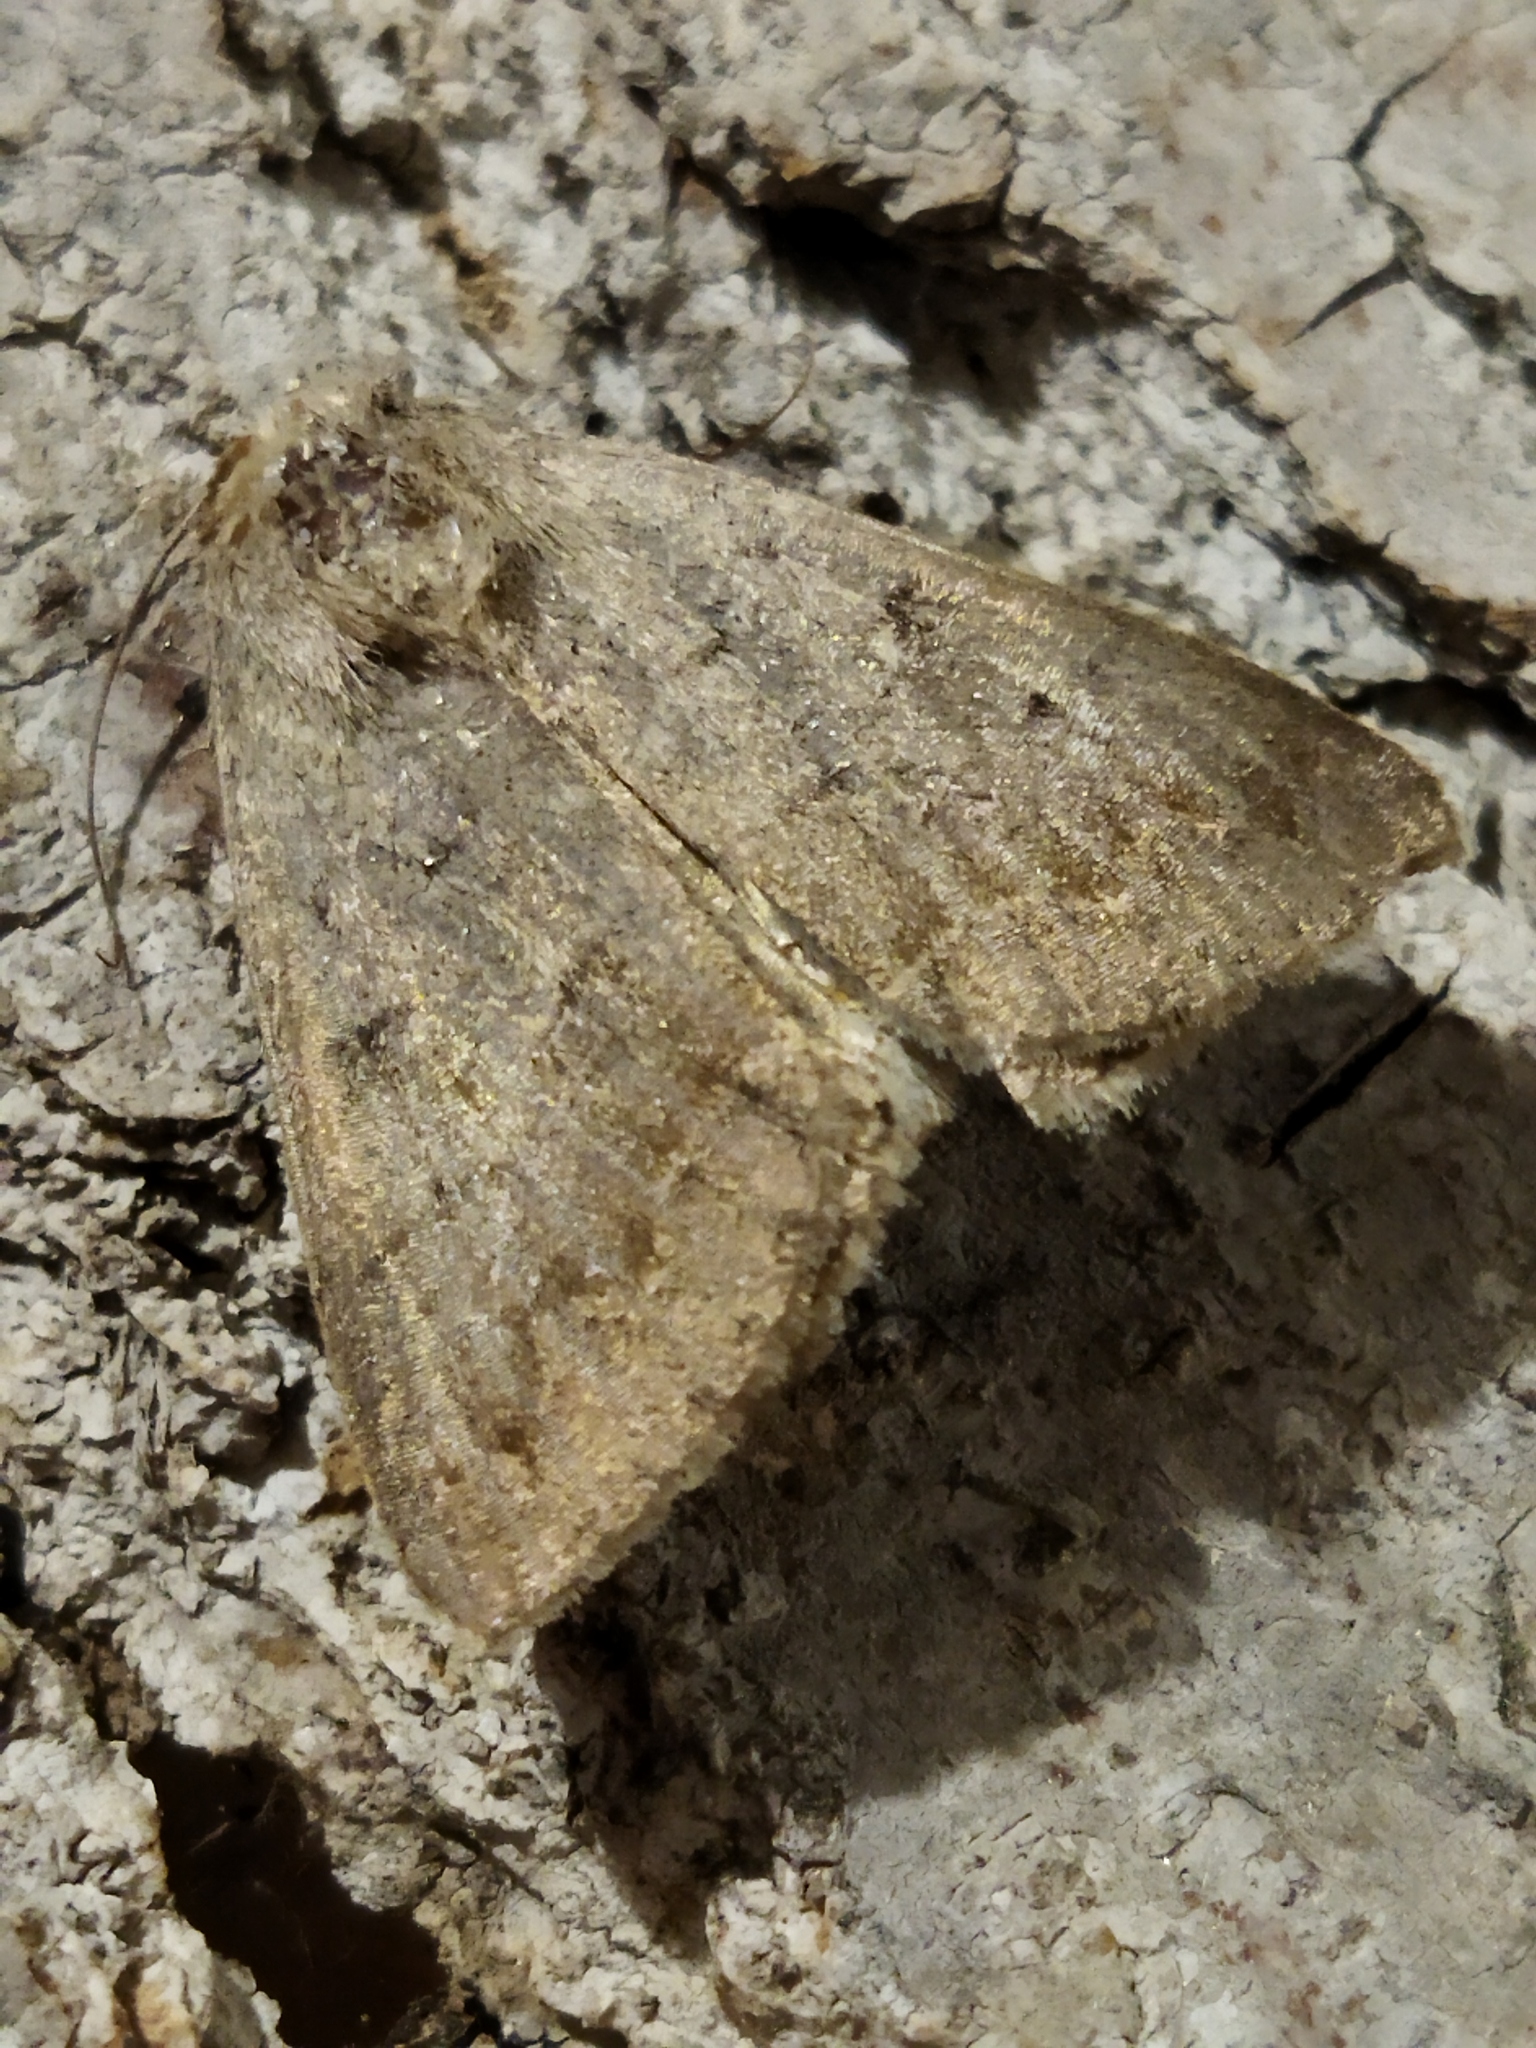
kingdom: Animalia
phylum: Arthropoda
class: Insecta
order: Lepidoptera
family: Erebidae
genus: Clytie
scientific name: Clytie syriaca
